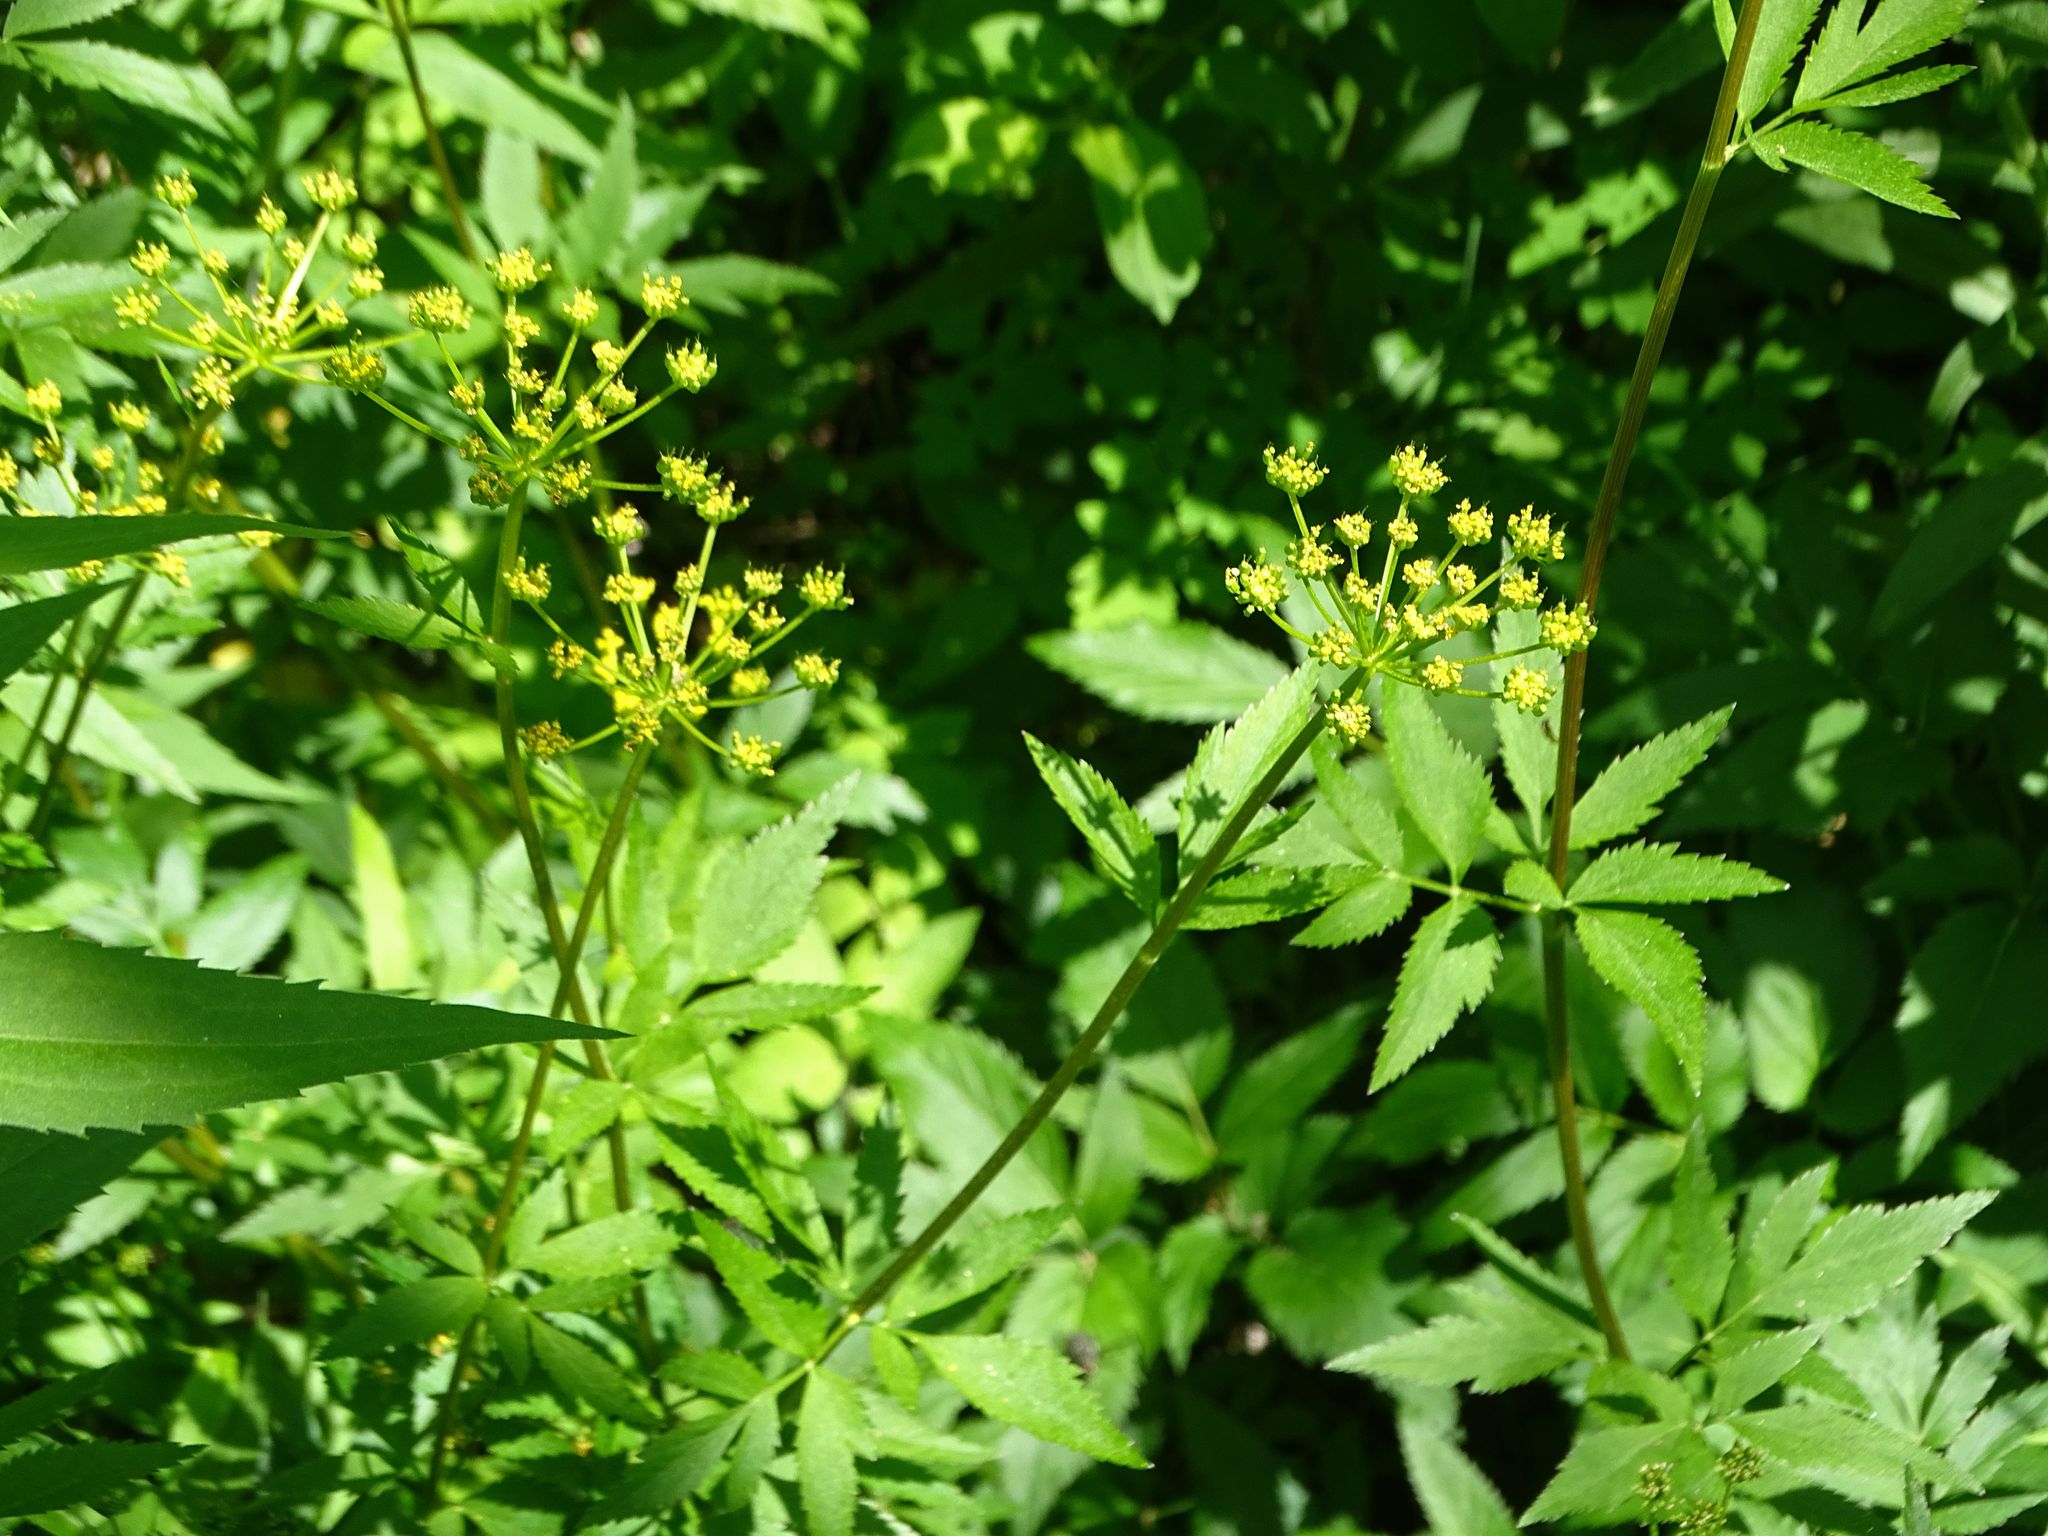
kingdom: Plantae
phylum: Tracheophyta
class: Magnoliopsida
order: Apiales
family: Apiaceae
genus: Zizia
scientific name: Zizia aurea
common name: Golden alexanders
